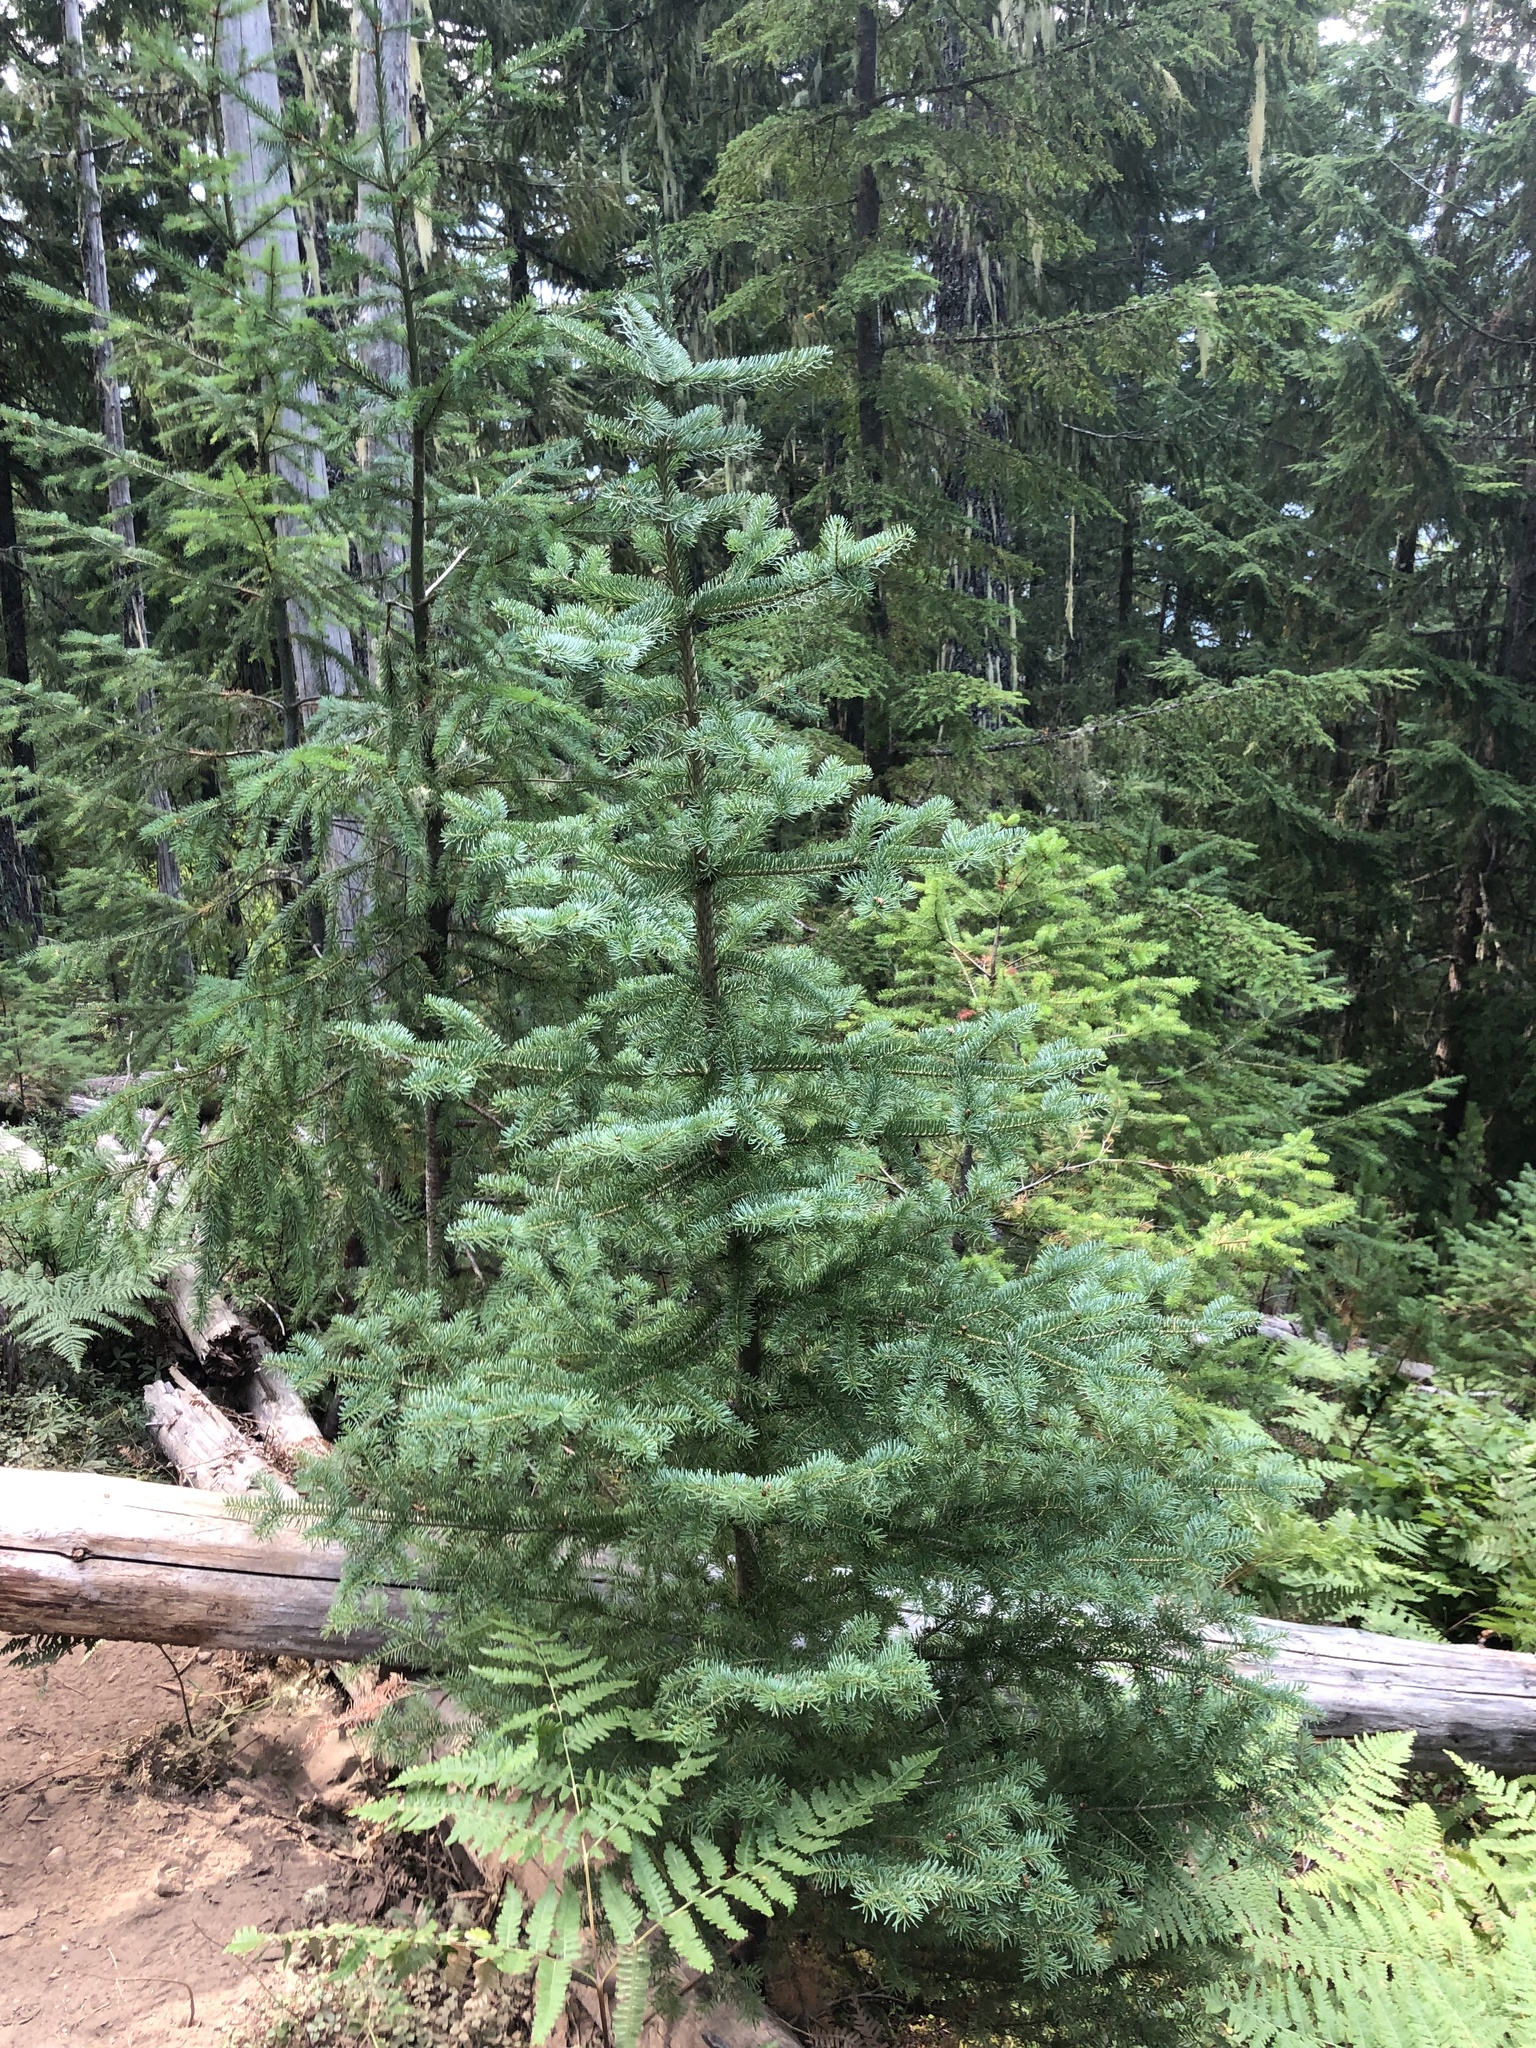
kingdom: Plantae
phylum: Tracheophyta
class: Pinopsida
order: Pinales
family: Pinaceae
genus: Abies
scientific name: Abies lasiocarpa
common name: Subalpine fir
